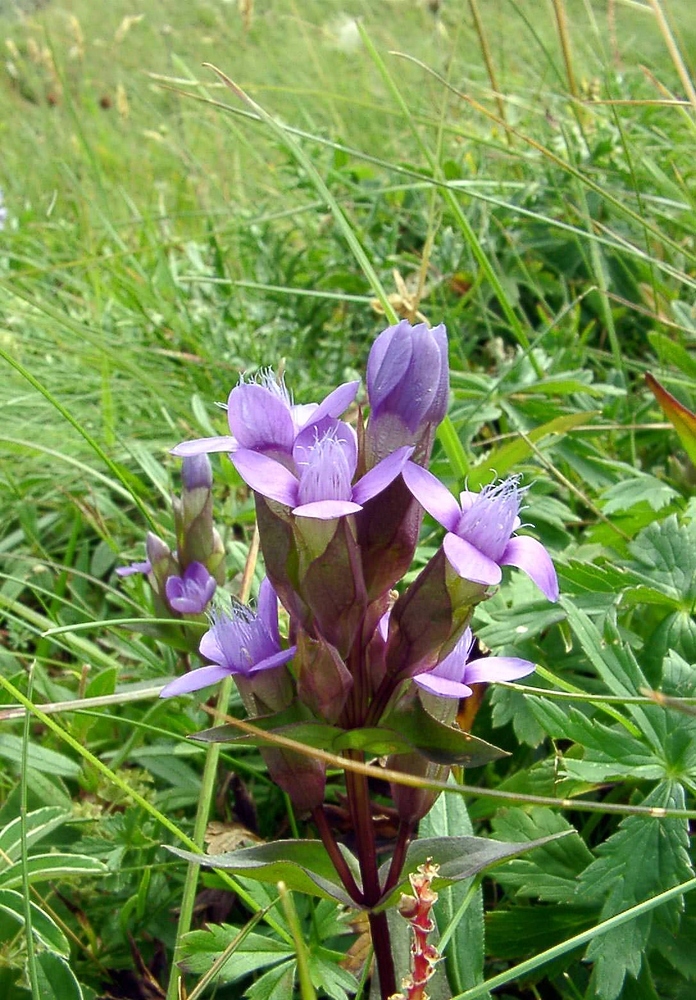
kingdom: Plantae
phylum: Tracheophyta
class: Magnoliopsida
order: Gentianales
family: Gentianaceae
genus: Gentianella
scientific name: Gentianella campestris
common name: Field gentian
